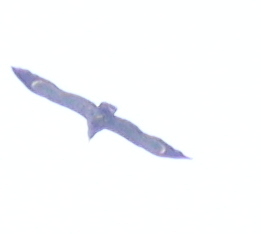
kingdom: Animalia
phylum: Chordata
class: Aves
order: Accipitriformes
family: Accipitridae
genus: Polyboroides
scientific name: Polyboroides typus
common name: African harrier-hawk
